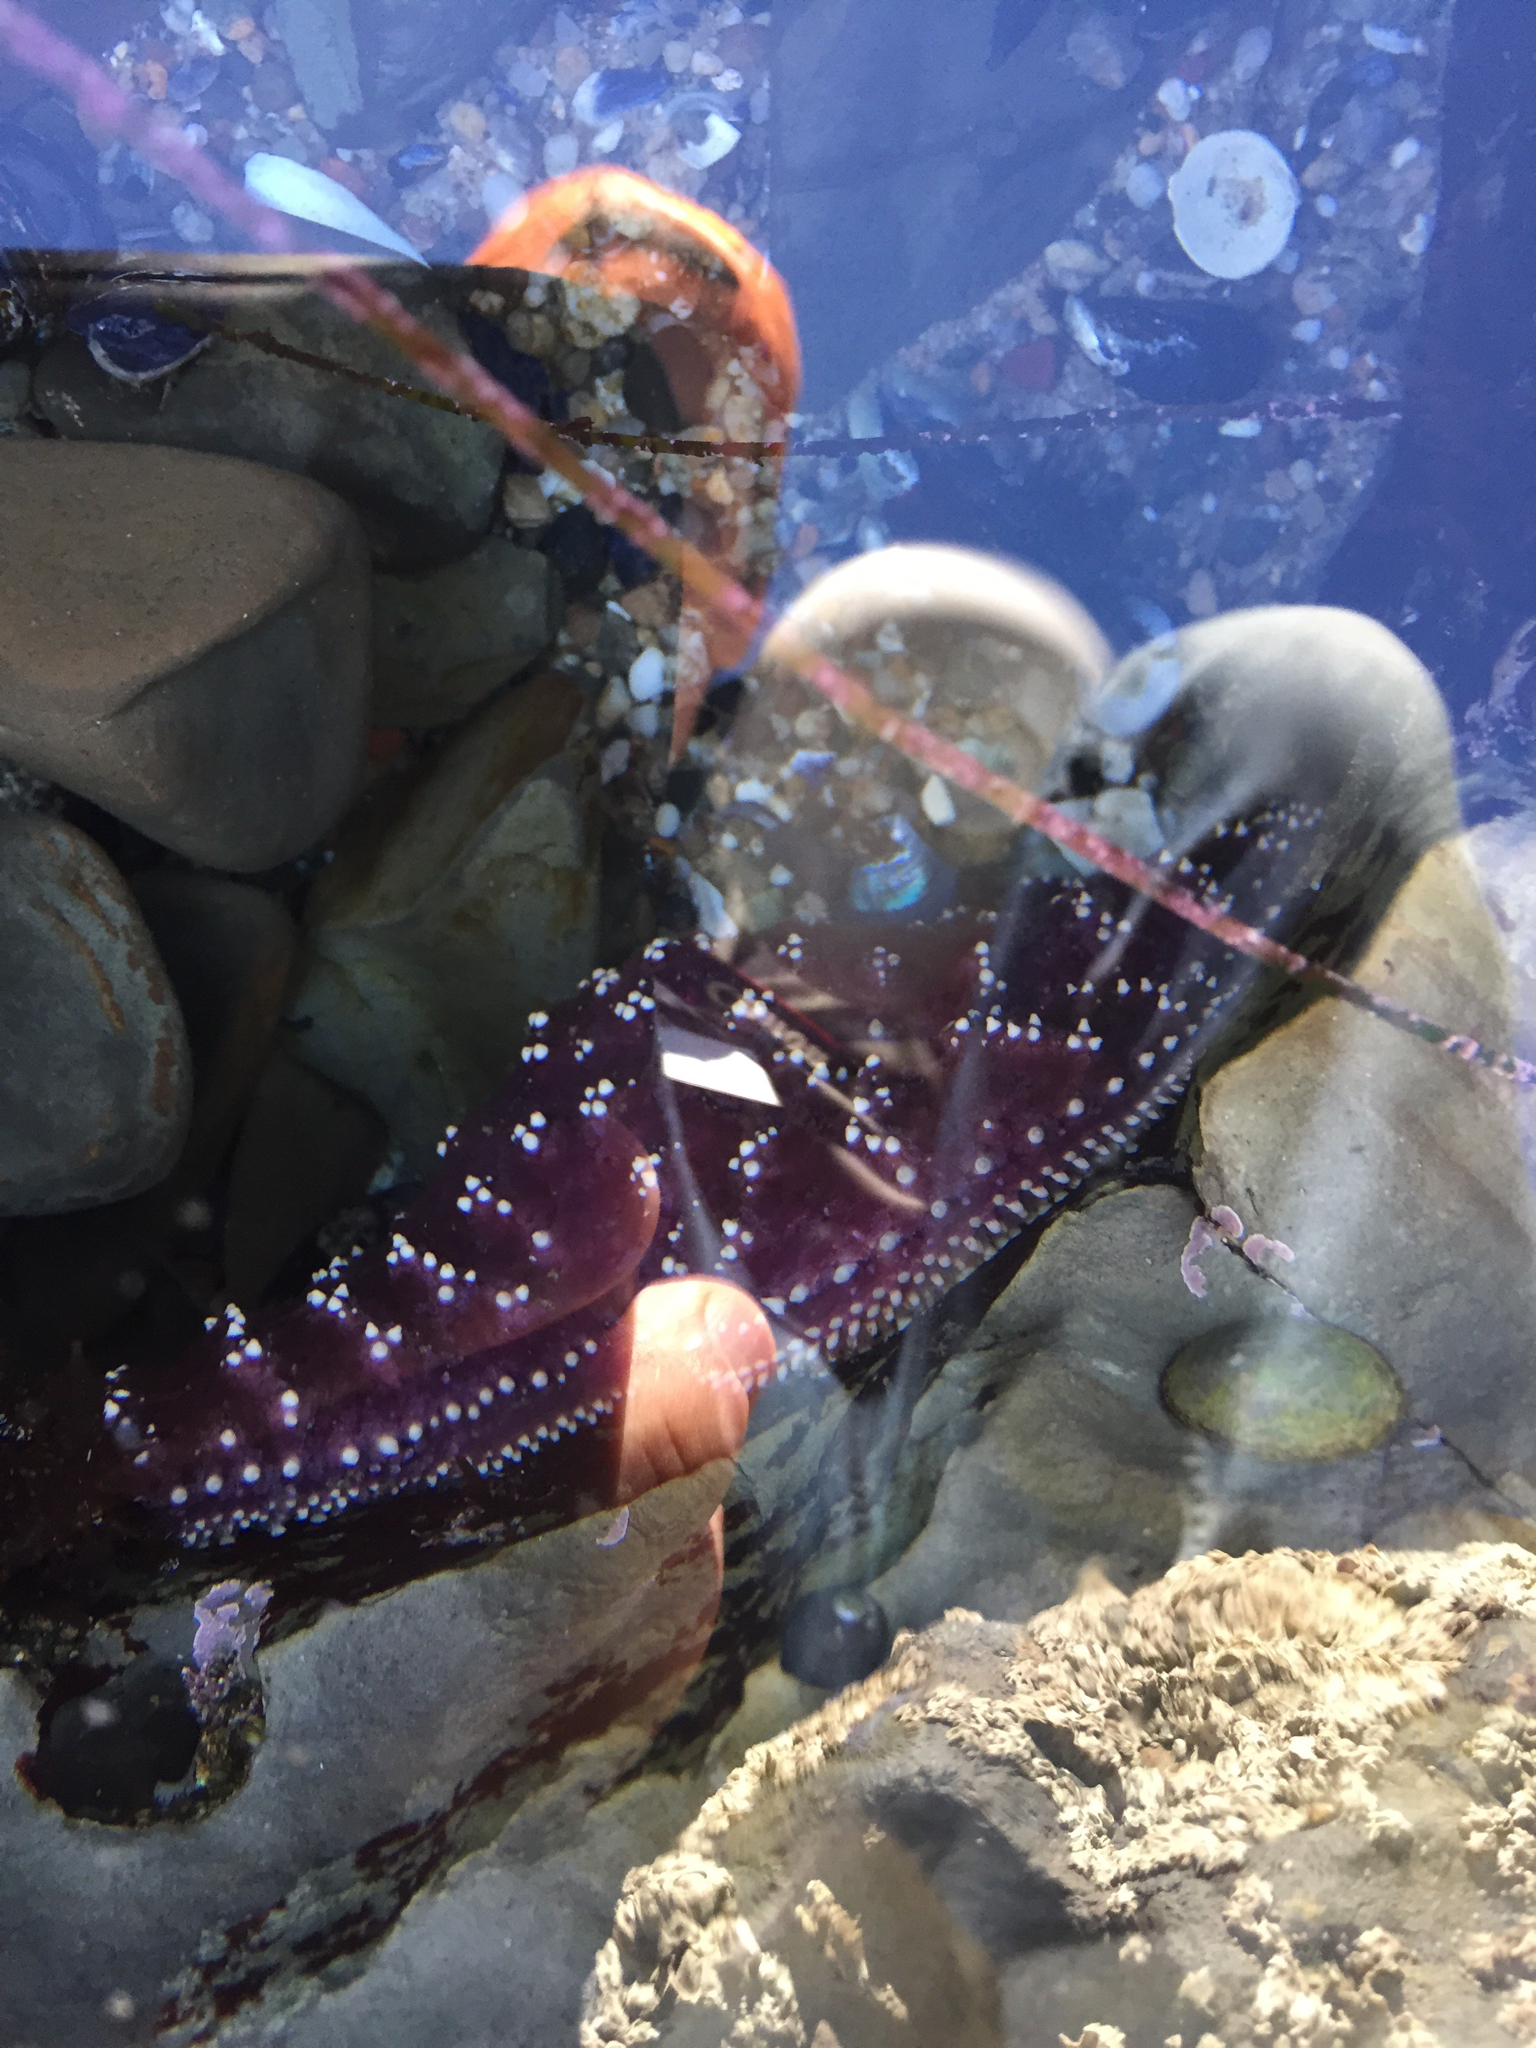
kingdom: Animalia
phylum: Echinodermata
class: Asteroidea
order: Forcipulatida
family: Asteriidae
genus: Pisaster
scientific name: Pisaster ochraceus
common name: Ochre stars
